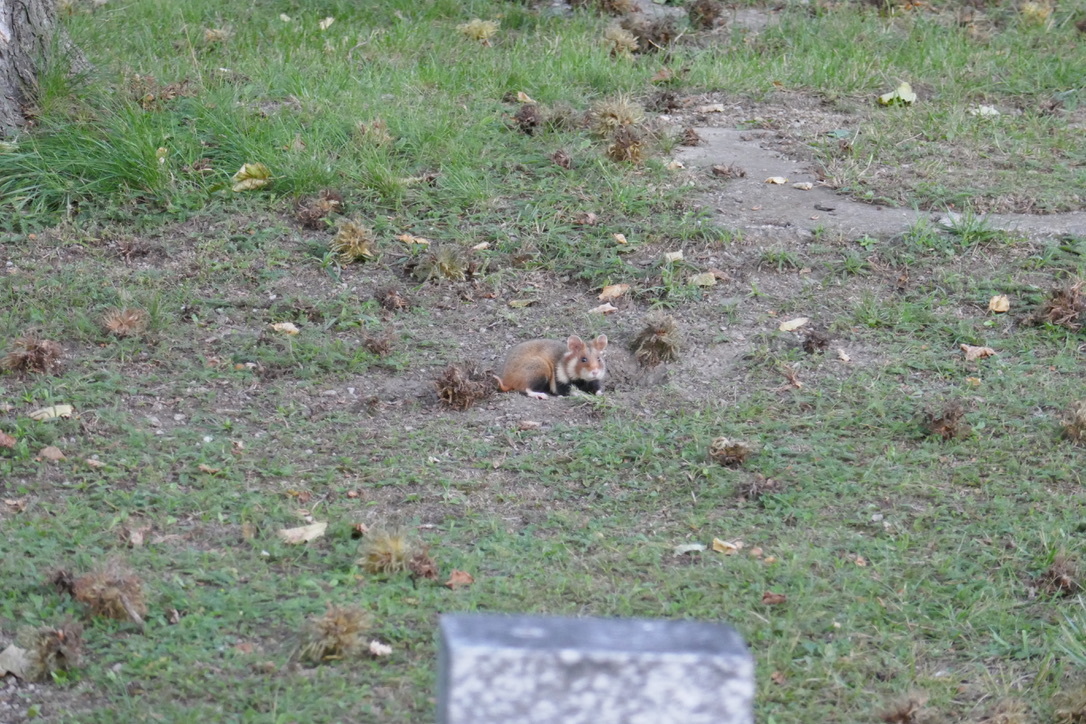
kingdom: Animalia
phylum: Chordata
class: Mammalia
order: Rodentia
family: Cricetidae
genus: Cricetus
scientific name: Cricetus cricetus
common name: Common hamster
